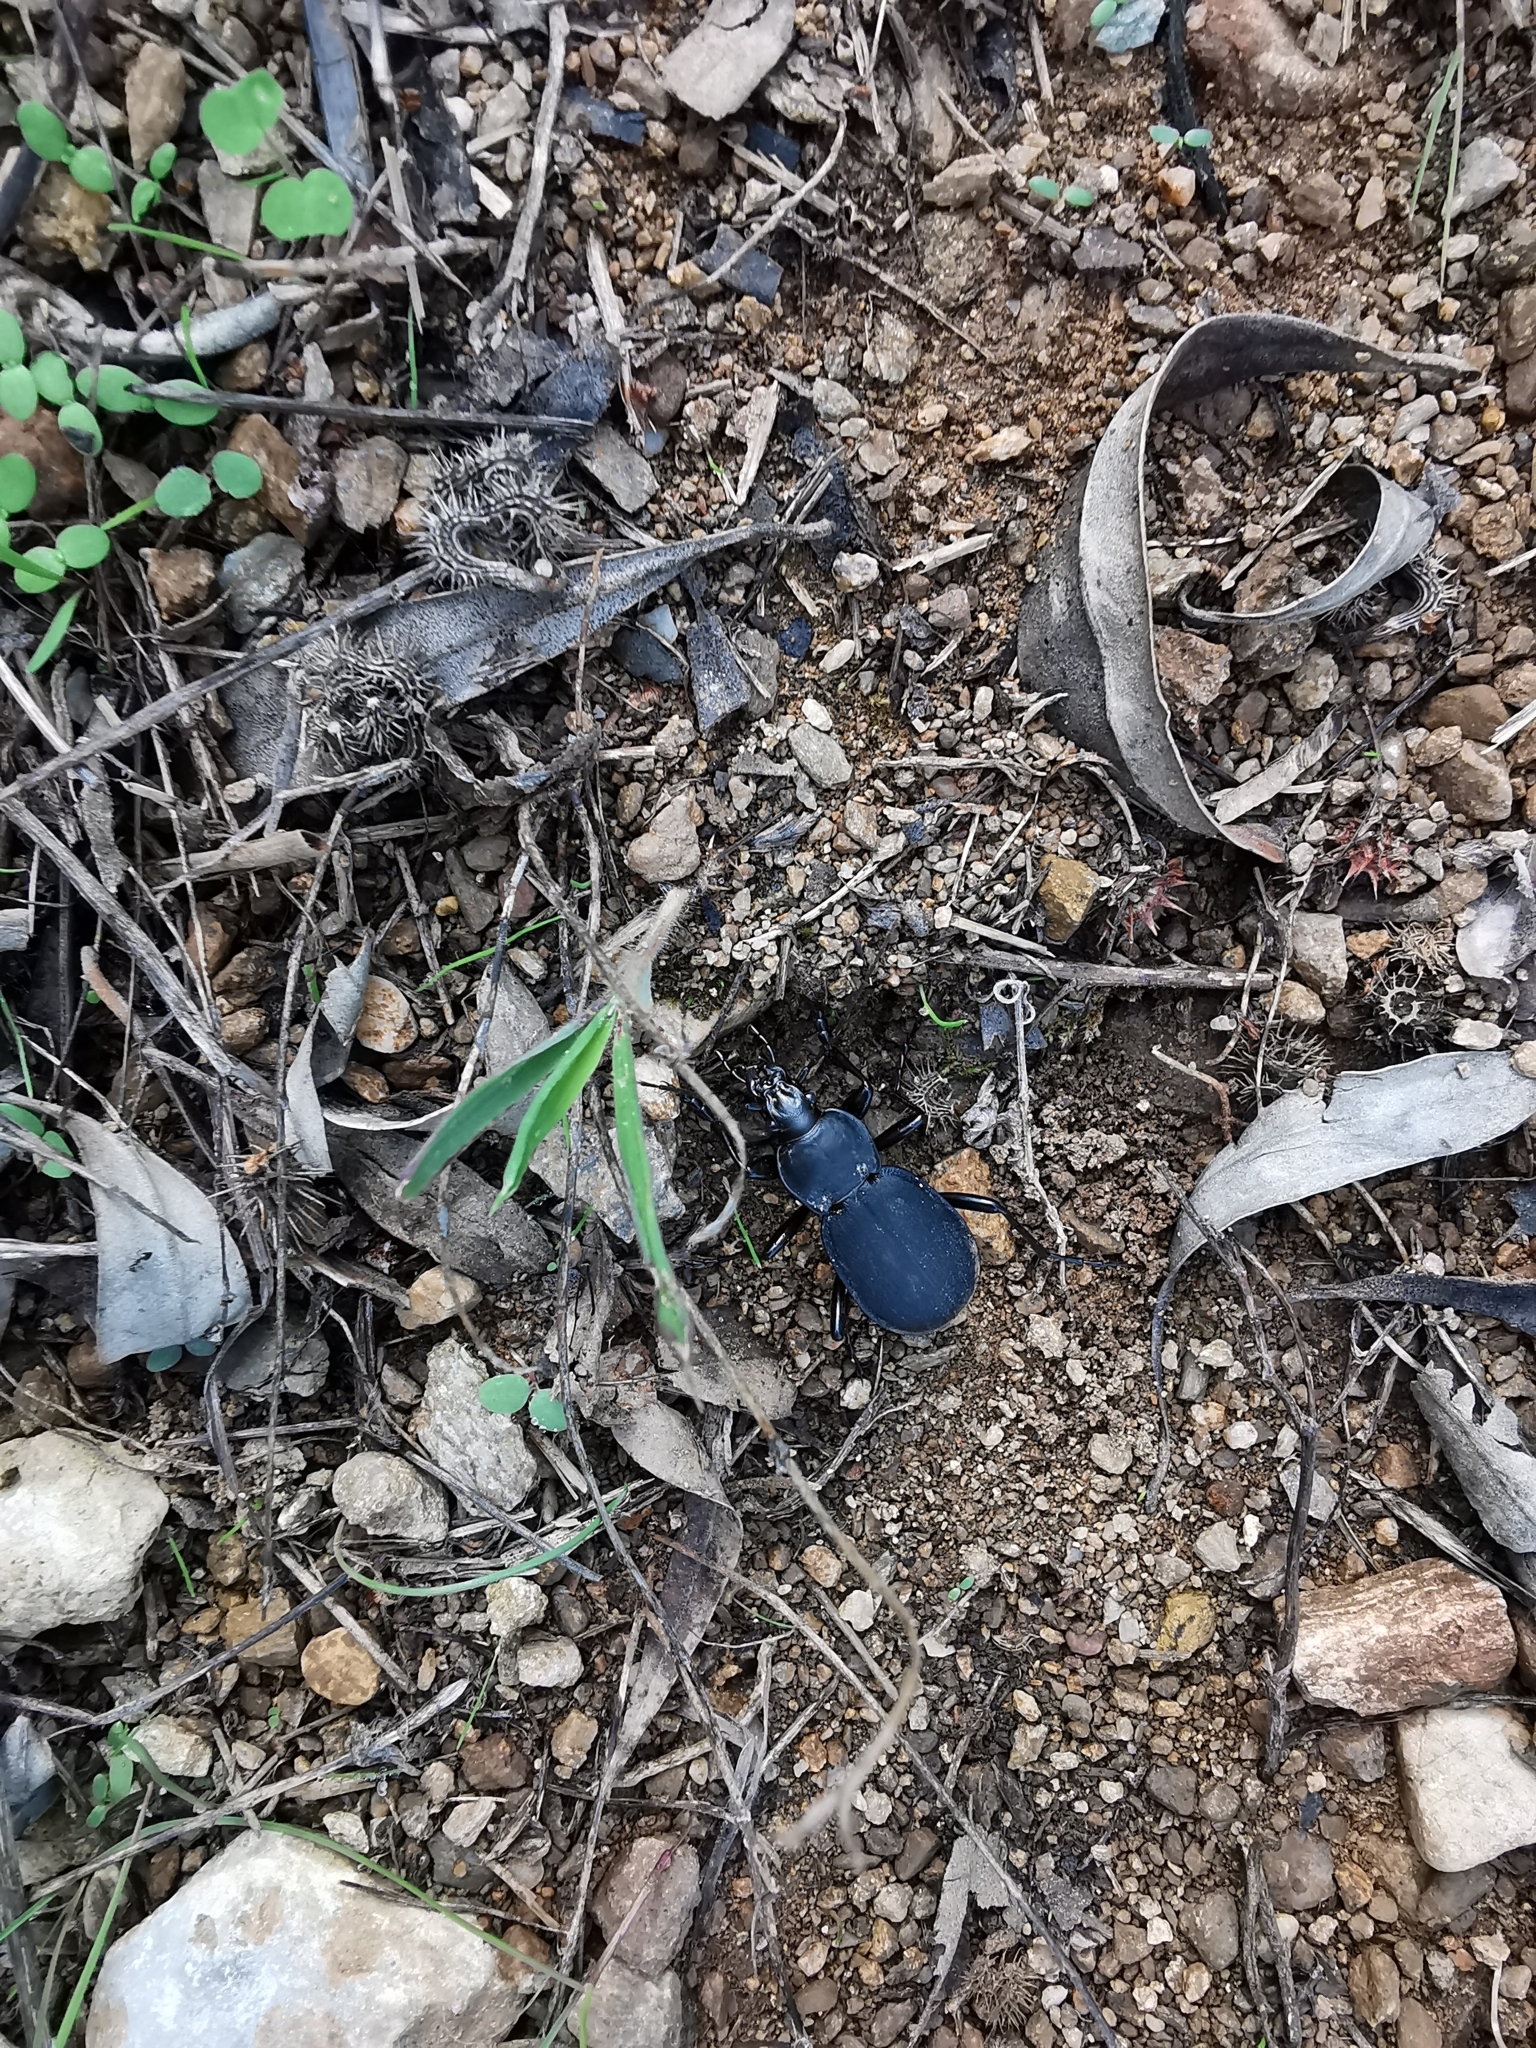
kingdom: Animalia
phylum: Arthropoda
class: Insecta
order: Coleoptera
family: Carabidae
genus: Carabus
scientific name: Carabus coriaceus
